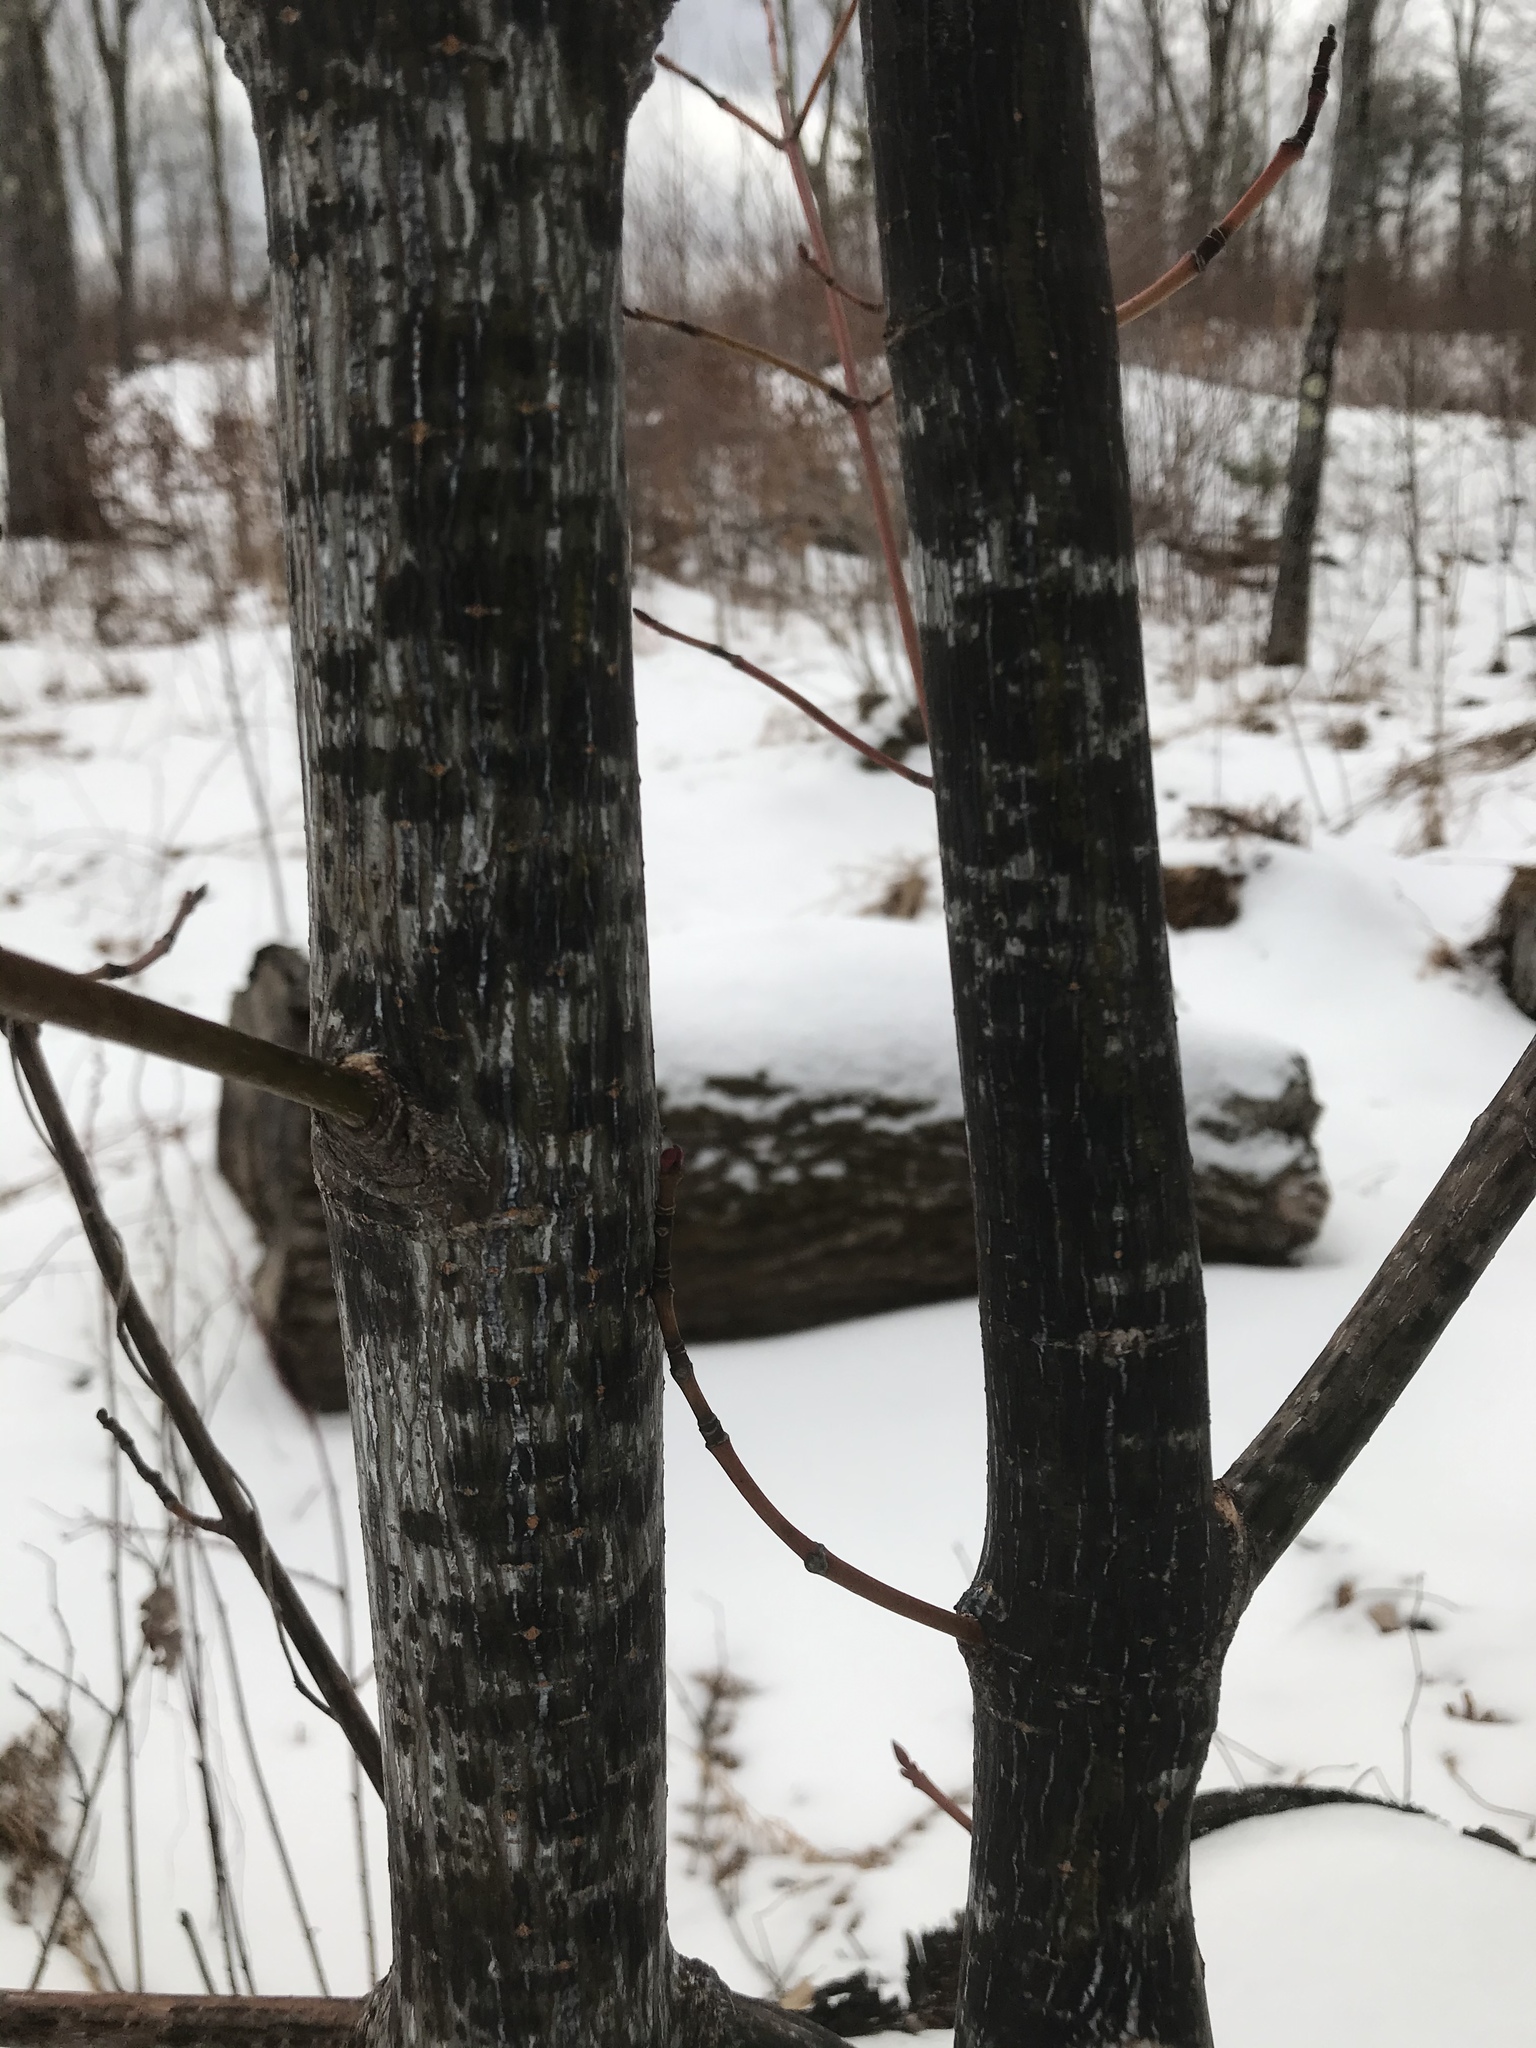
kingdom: Plantae
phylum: Tracheophyta
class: Magnoliopsida
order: Sapindales
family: Sapindaceae
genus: Acer
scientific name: Acer pensylvanicum
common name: Moosewood
